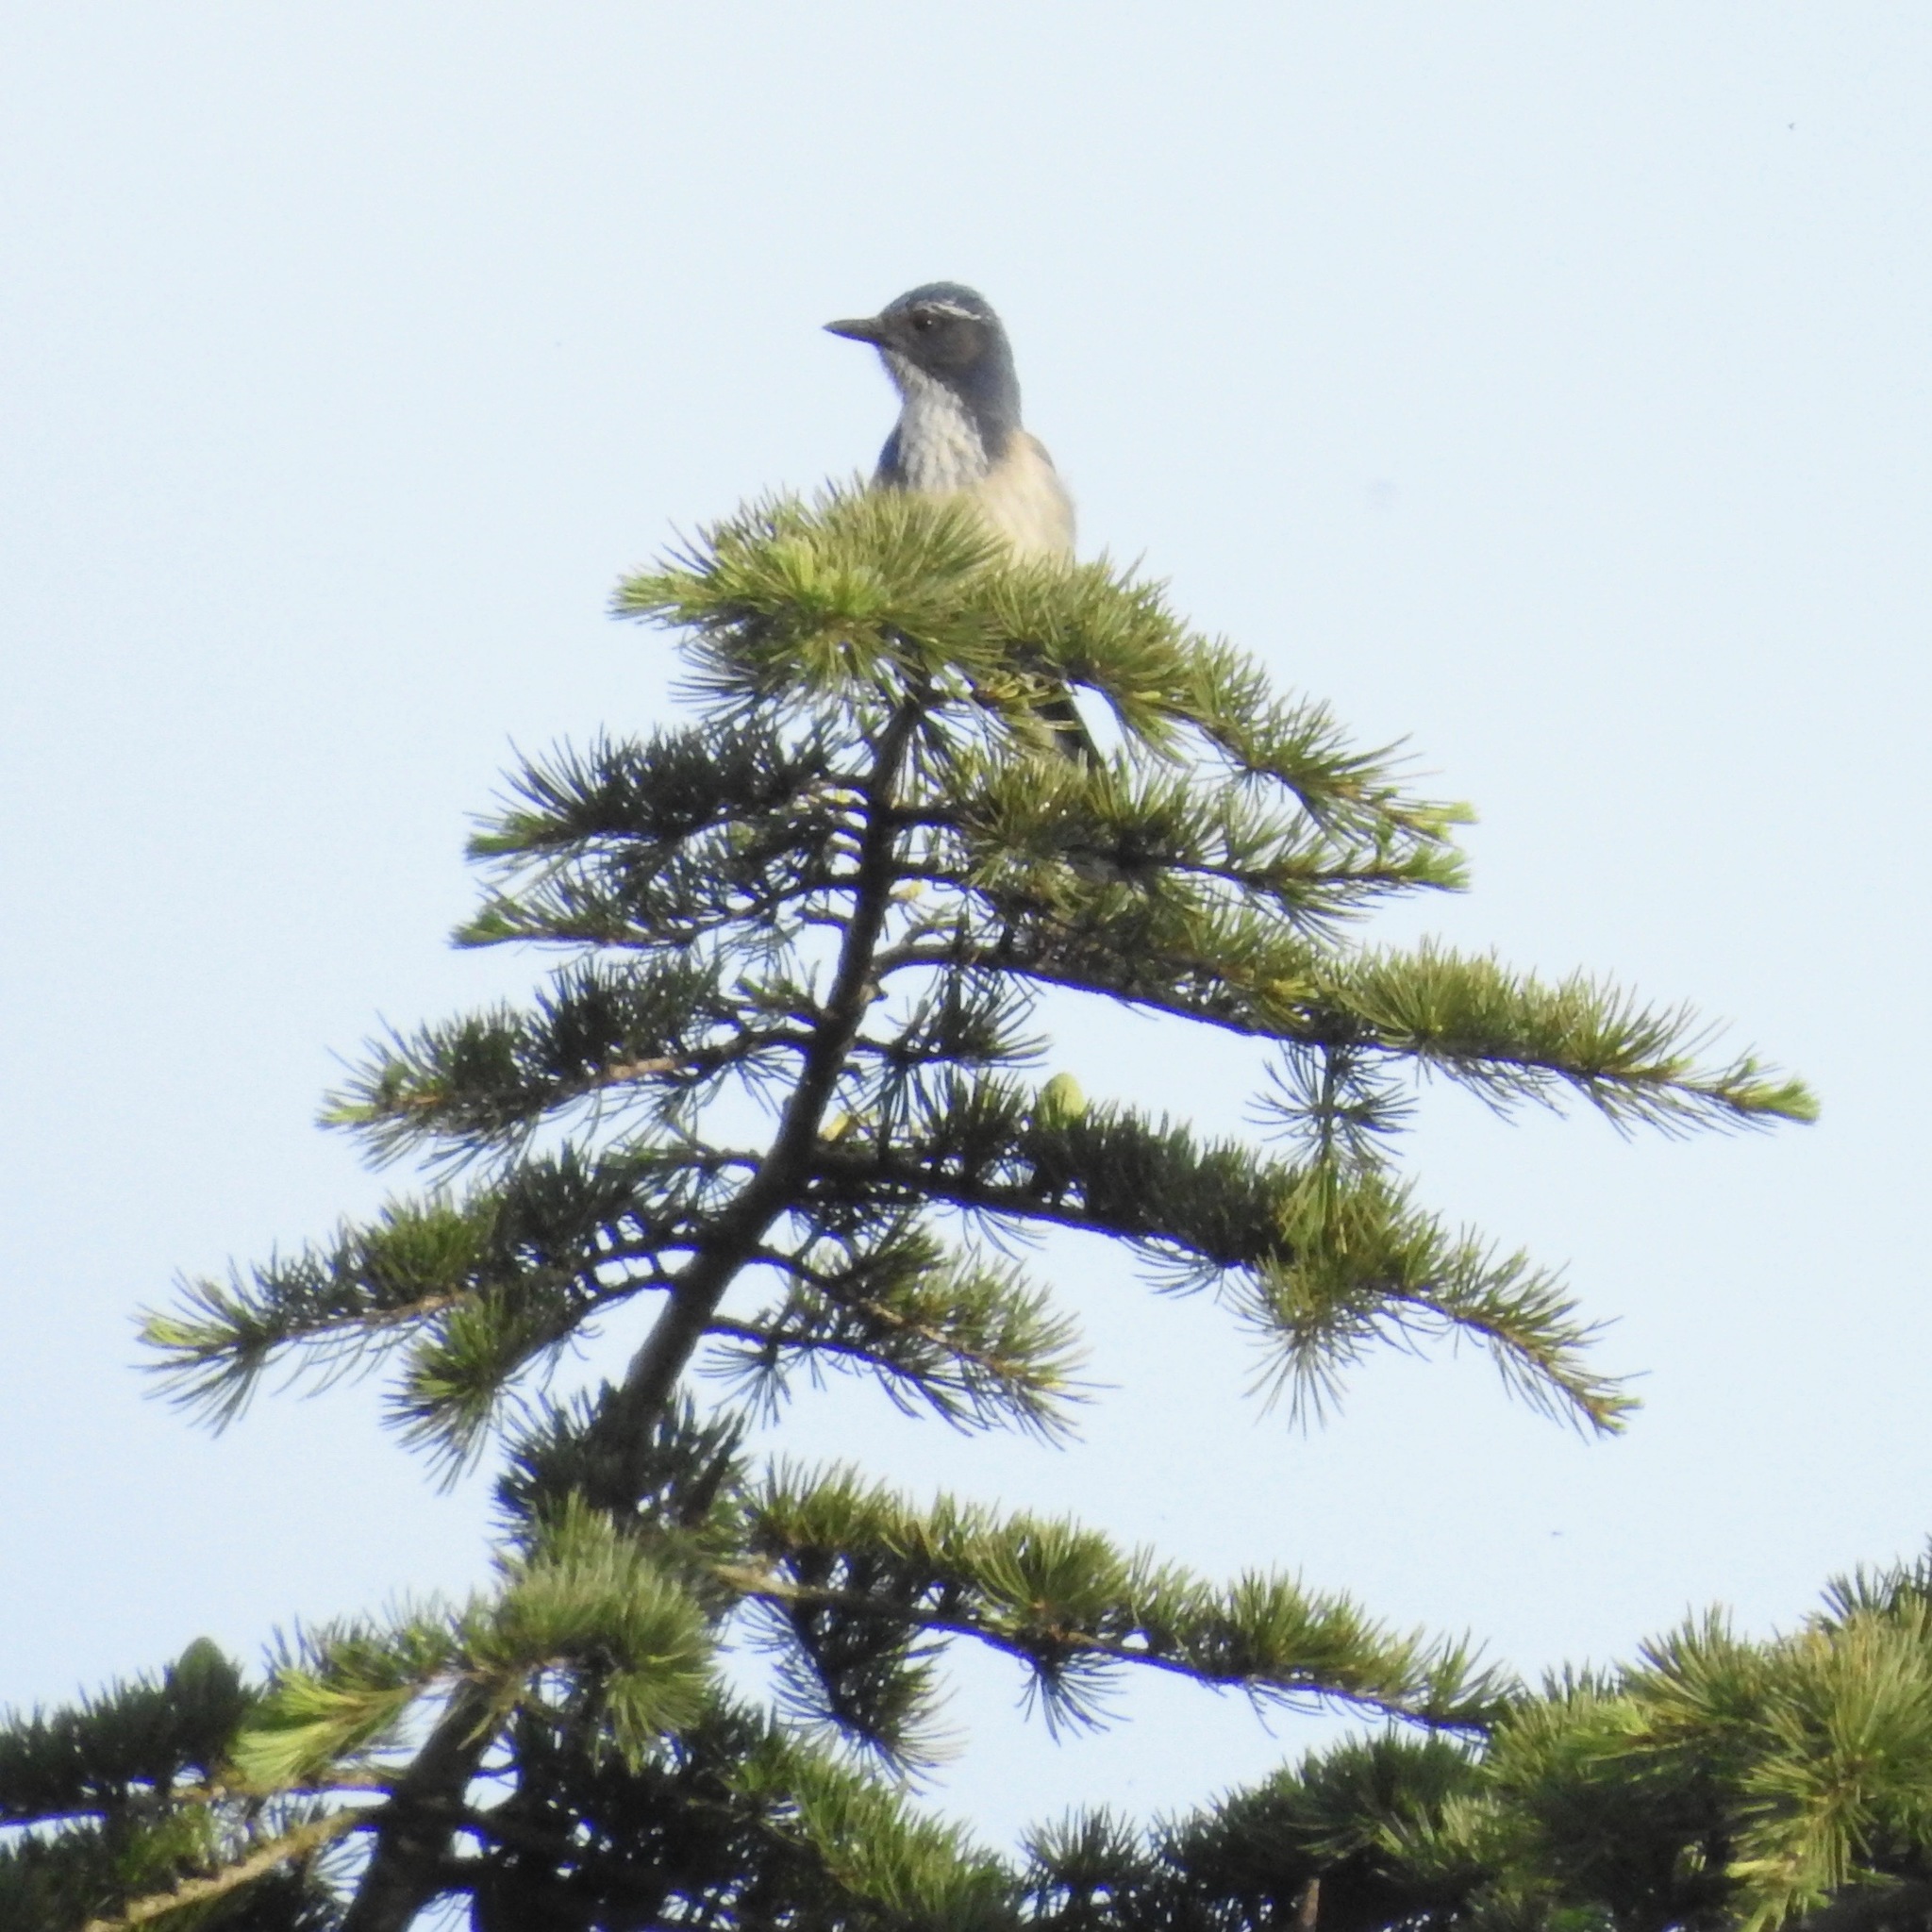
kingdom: Animalia
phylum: Chordata
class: Aves
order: Passeriformes
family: Corvidae
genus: Aphelocoma
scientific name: Aphelocoma californica
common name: California scrub-jay
